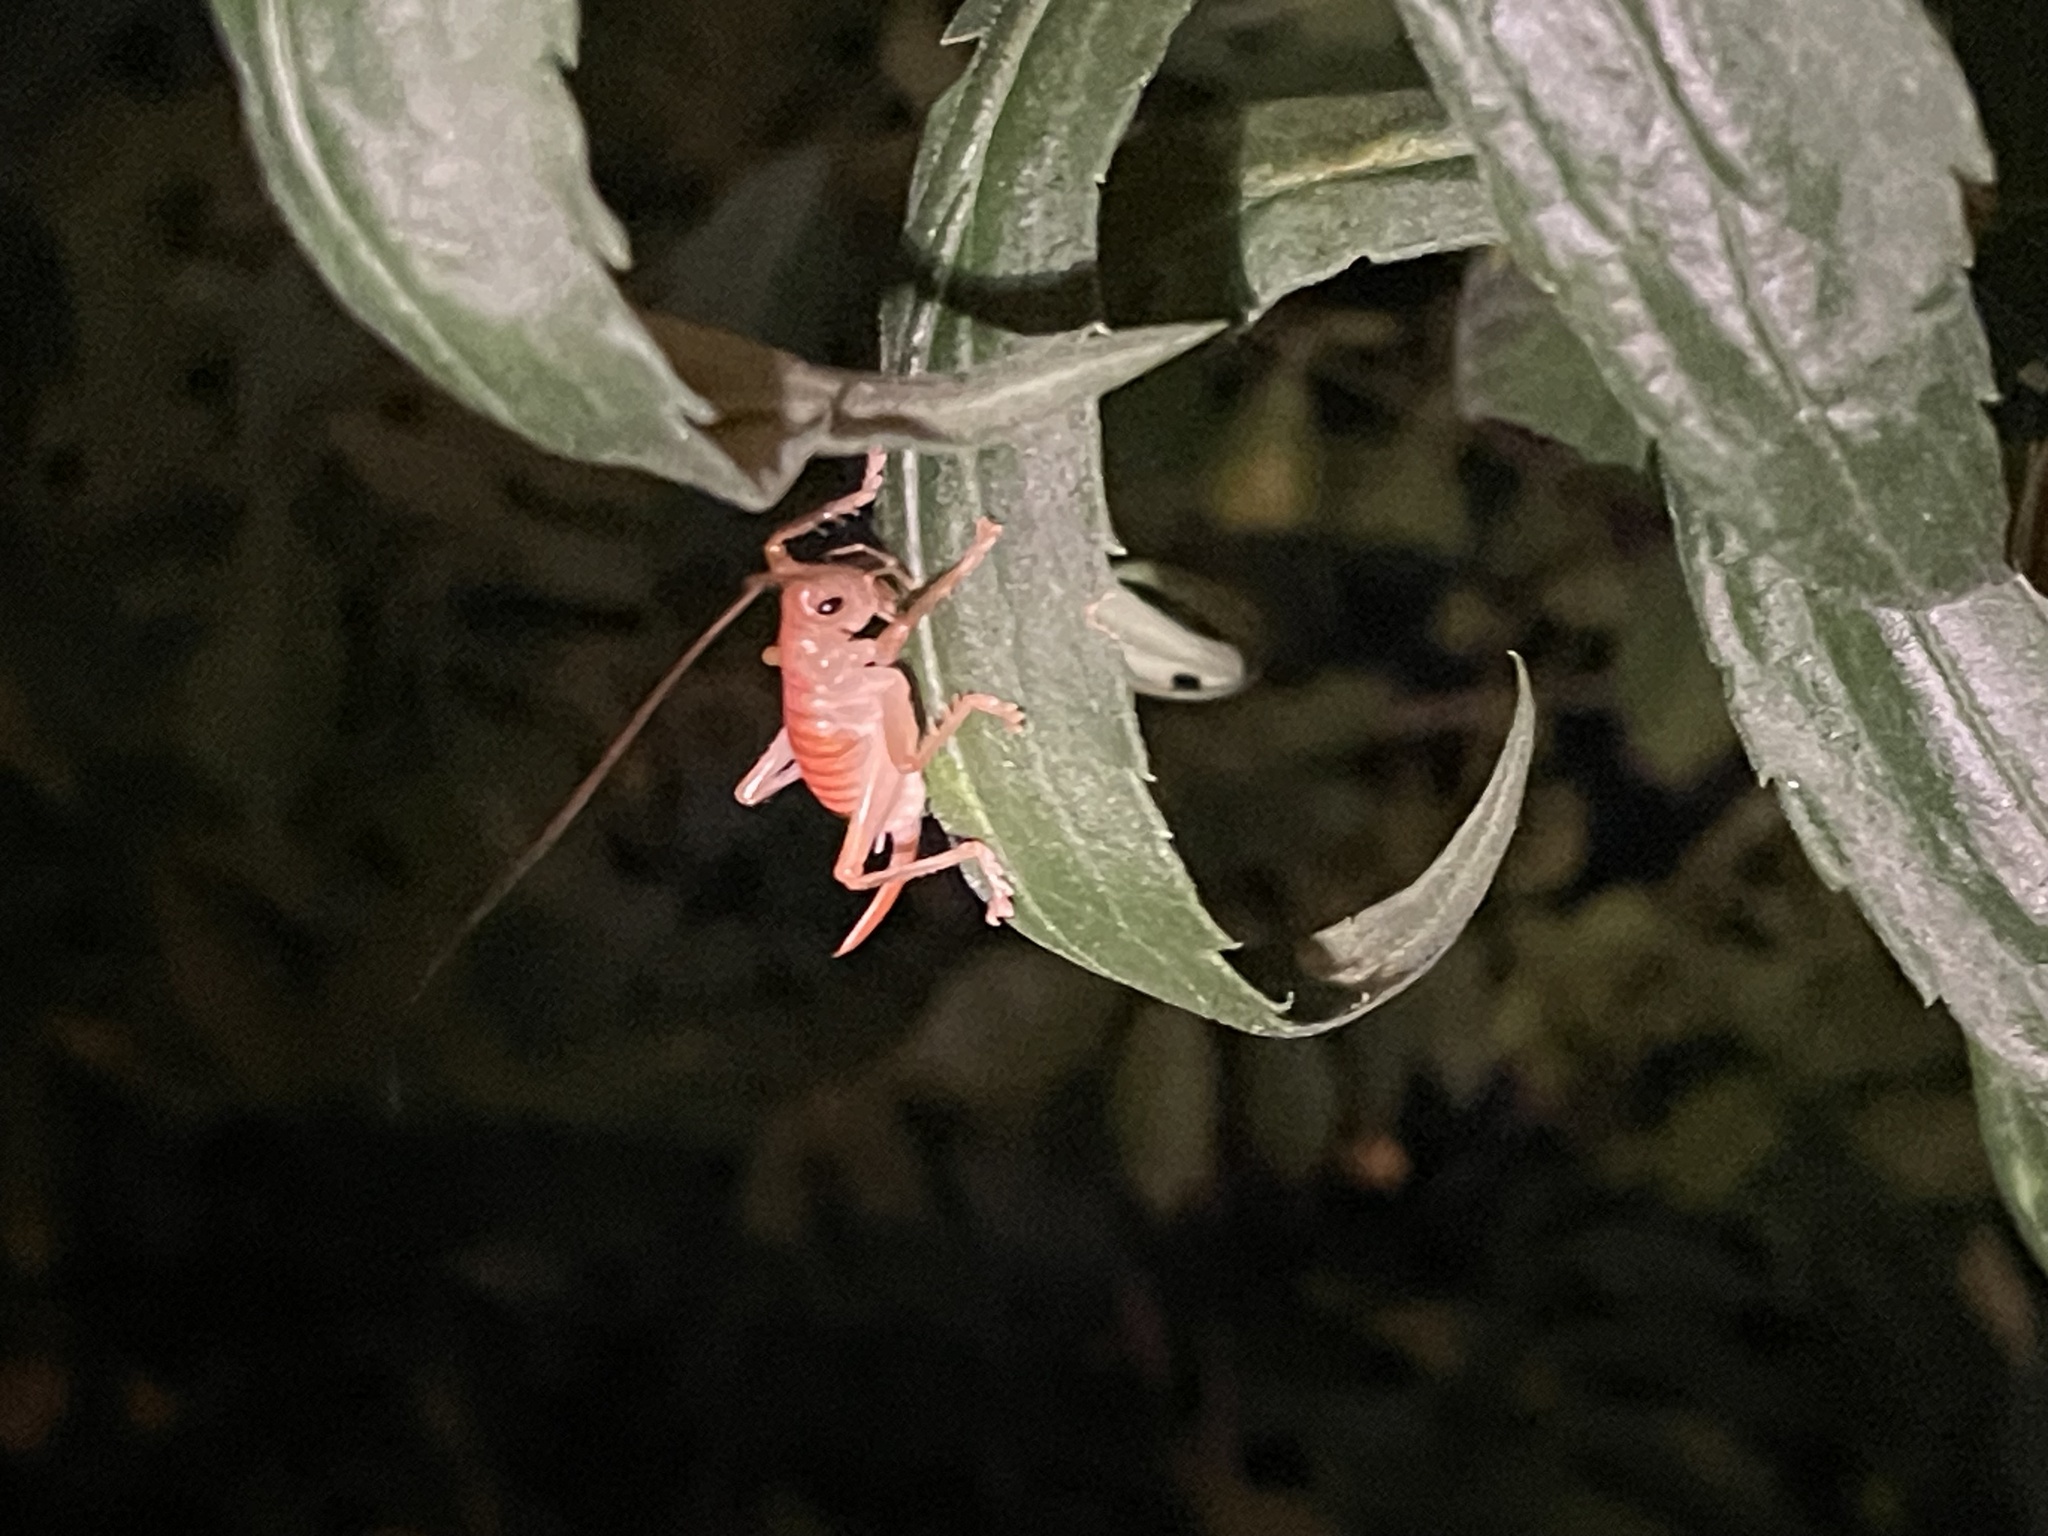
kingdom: Animalia
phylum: Arthropoda
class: Insecta
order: Orthoptera
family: Gryllacrididae
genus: Camptonotus
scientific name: Camptonotus carolinensis
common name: Carolina leaf-roller
